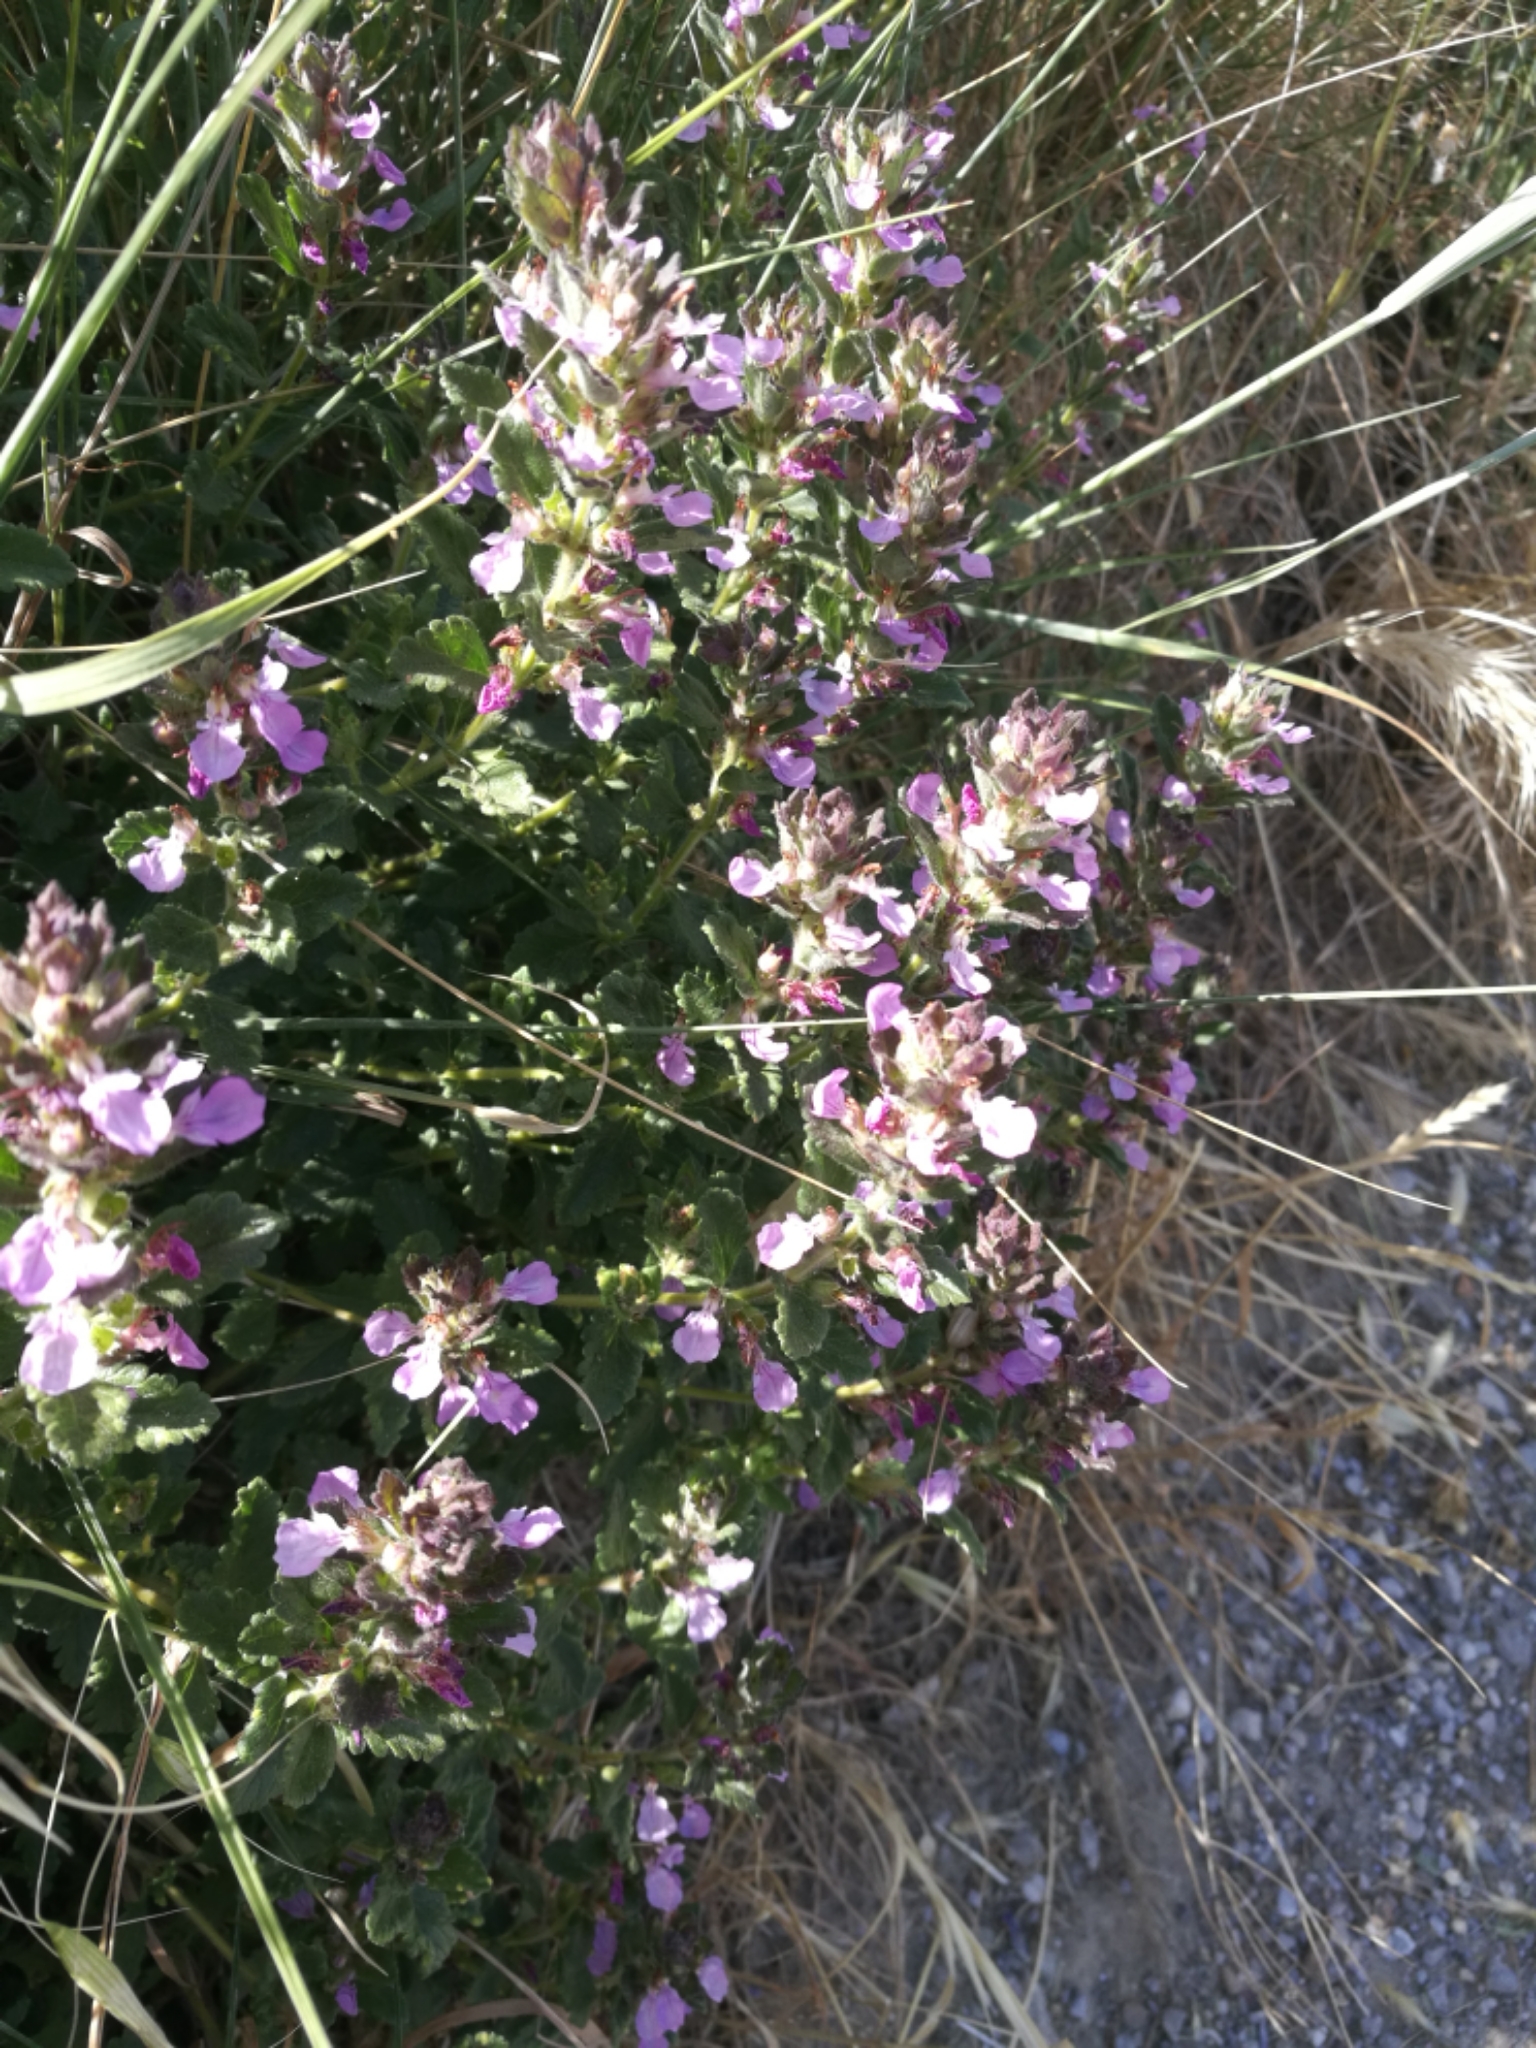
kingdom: Plantae
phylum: Tracheophyta
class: Magnoliopsida
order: Lamiales
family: Lamiaceae
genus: Teucrium
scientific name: Teucrium chamaedrys
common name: Wall germander
